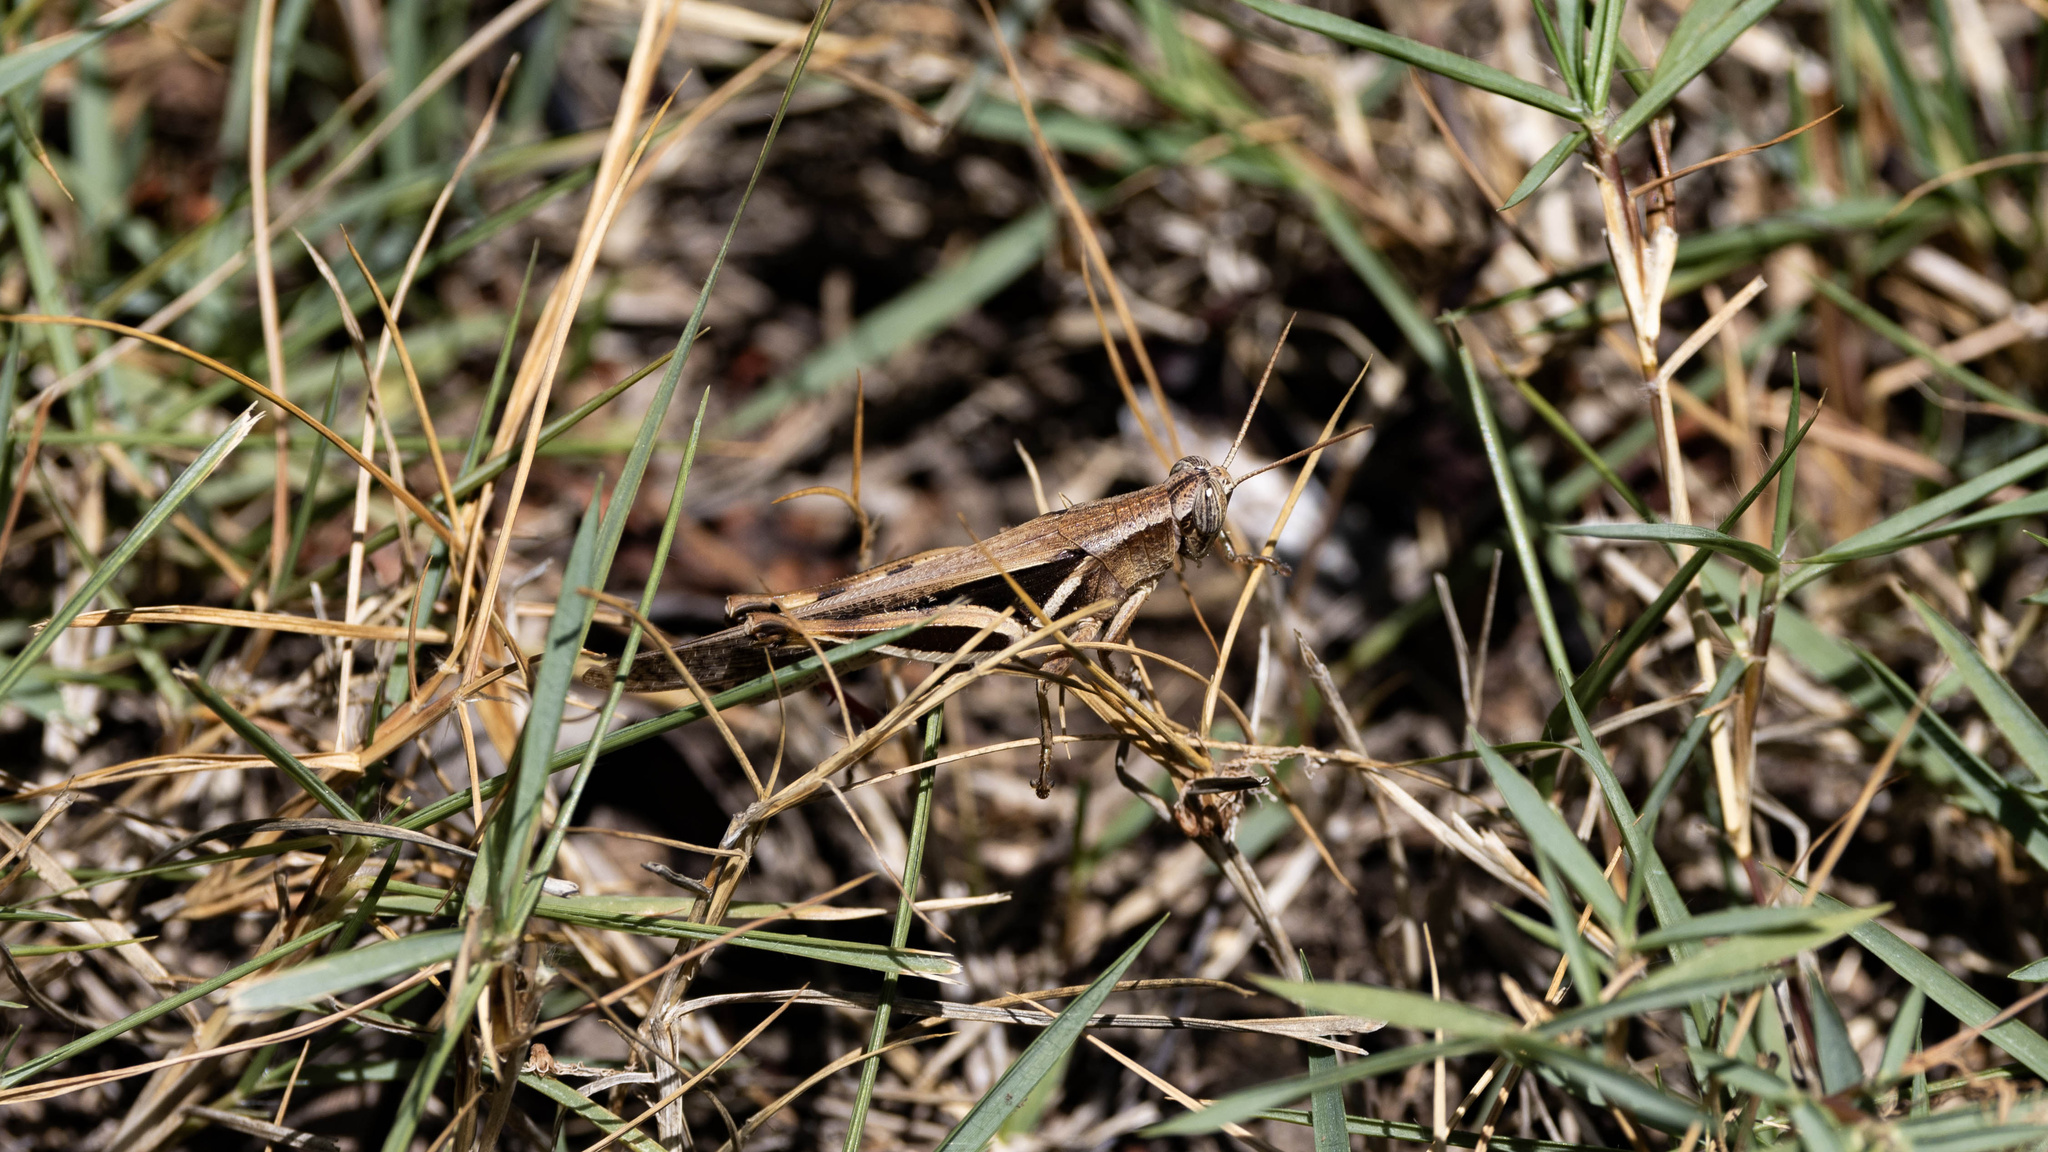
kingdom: Animalia
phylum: Arthropoda
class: Insecta
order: Orthoptera
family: Acrididae
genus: Stenocatantops
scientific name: Stenocatantops exinsula
